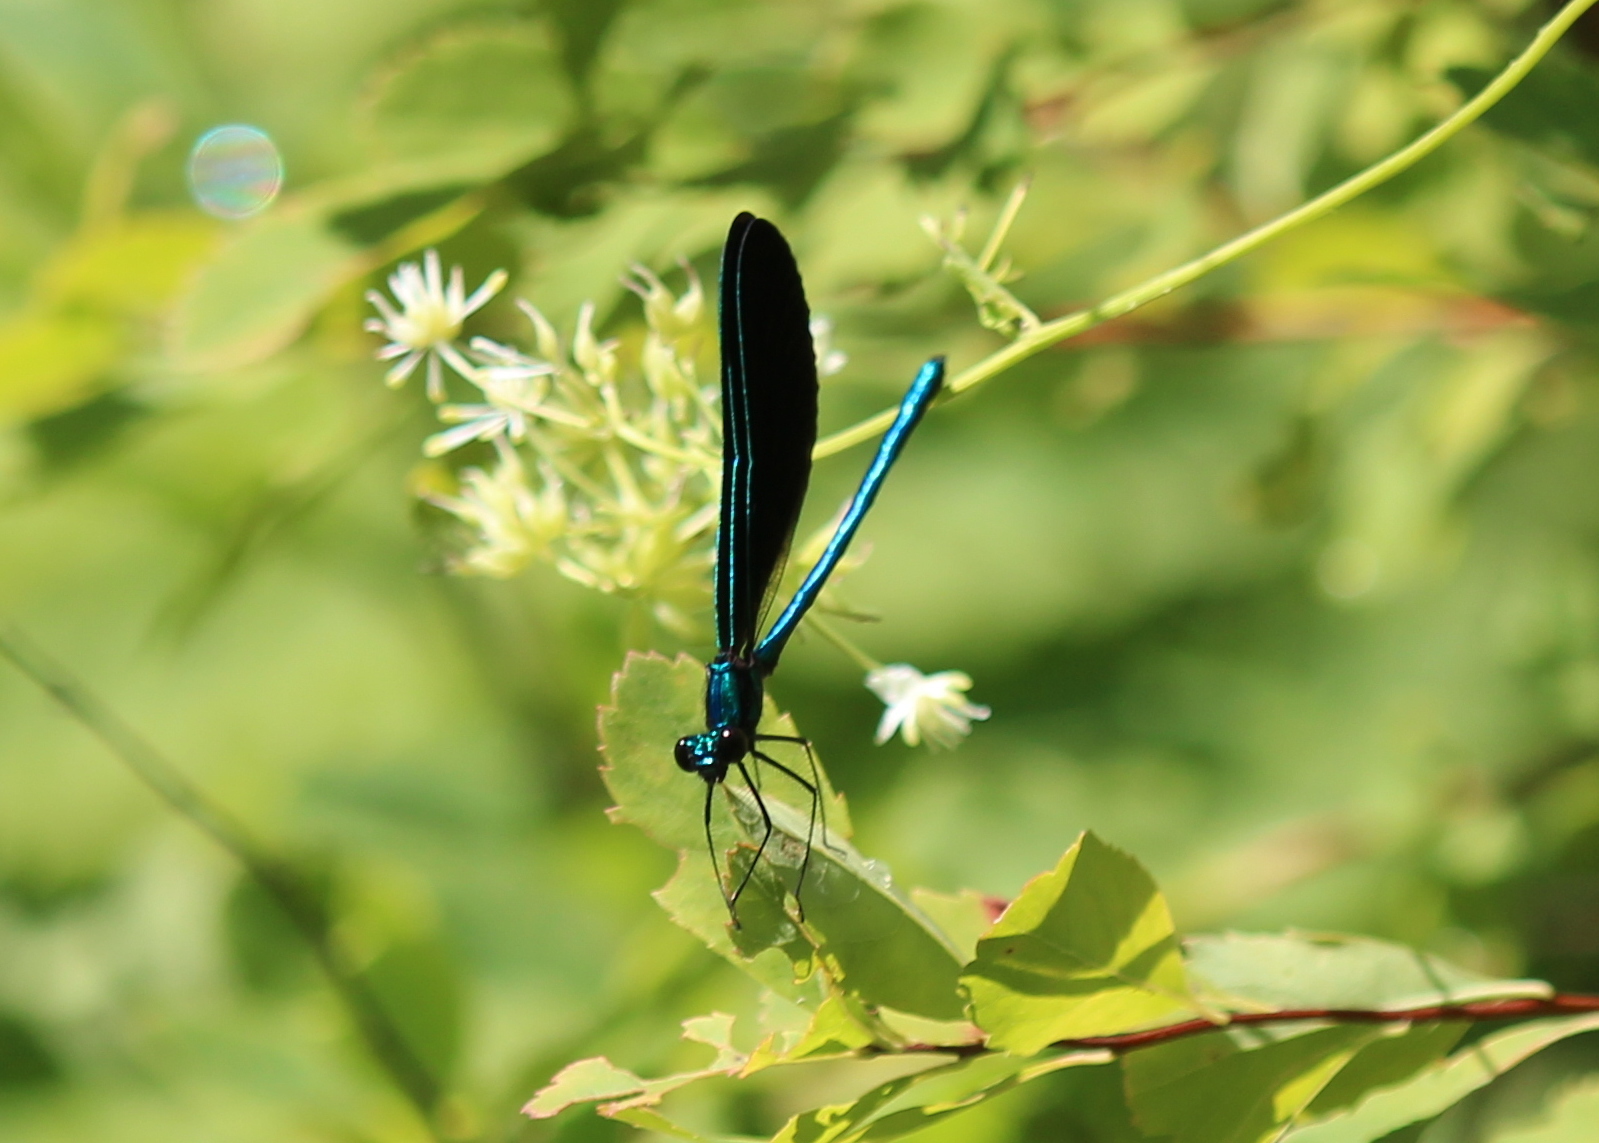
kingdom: Animalia
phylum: Arthropoda
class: Insecta
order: Odonata
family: Calopterygidae
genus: Calopteryx
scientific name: Calopteryx maculata
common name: Ebony jewelwing
